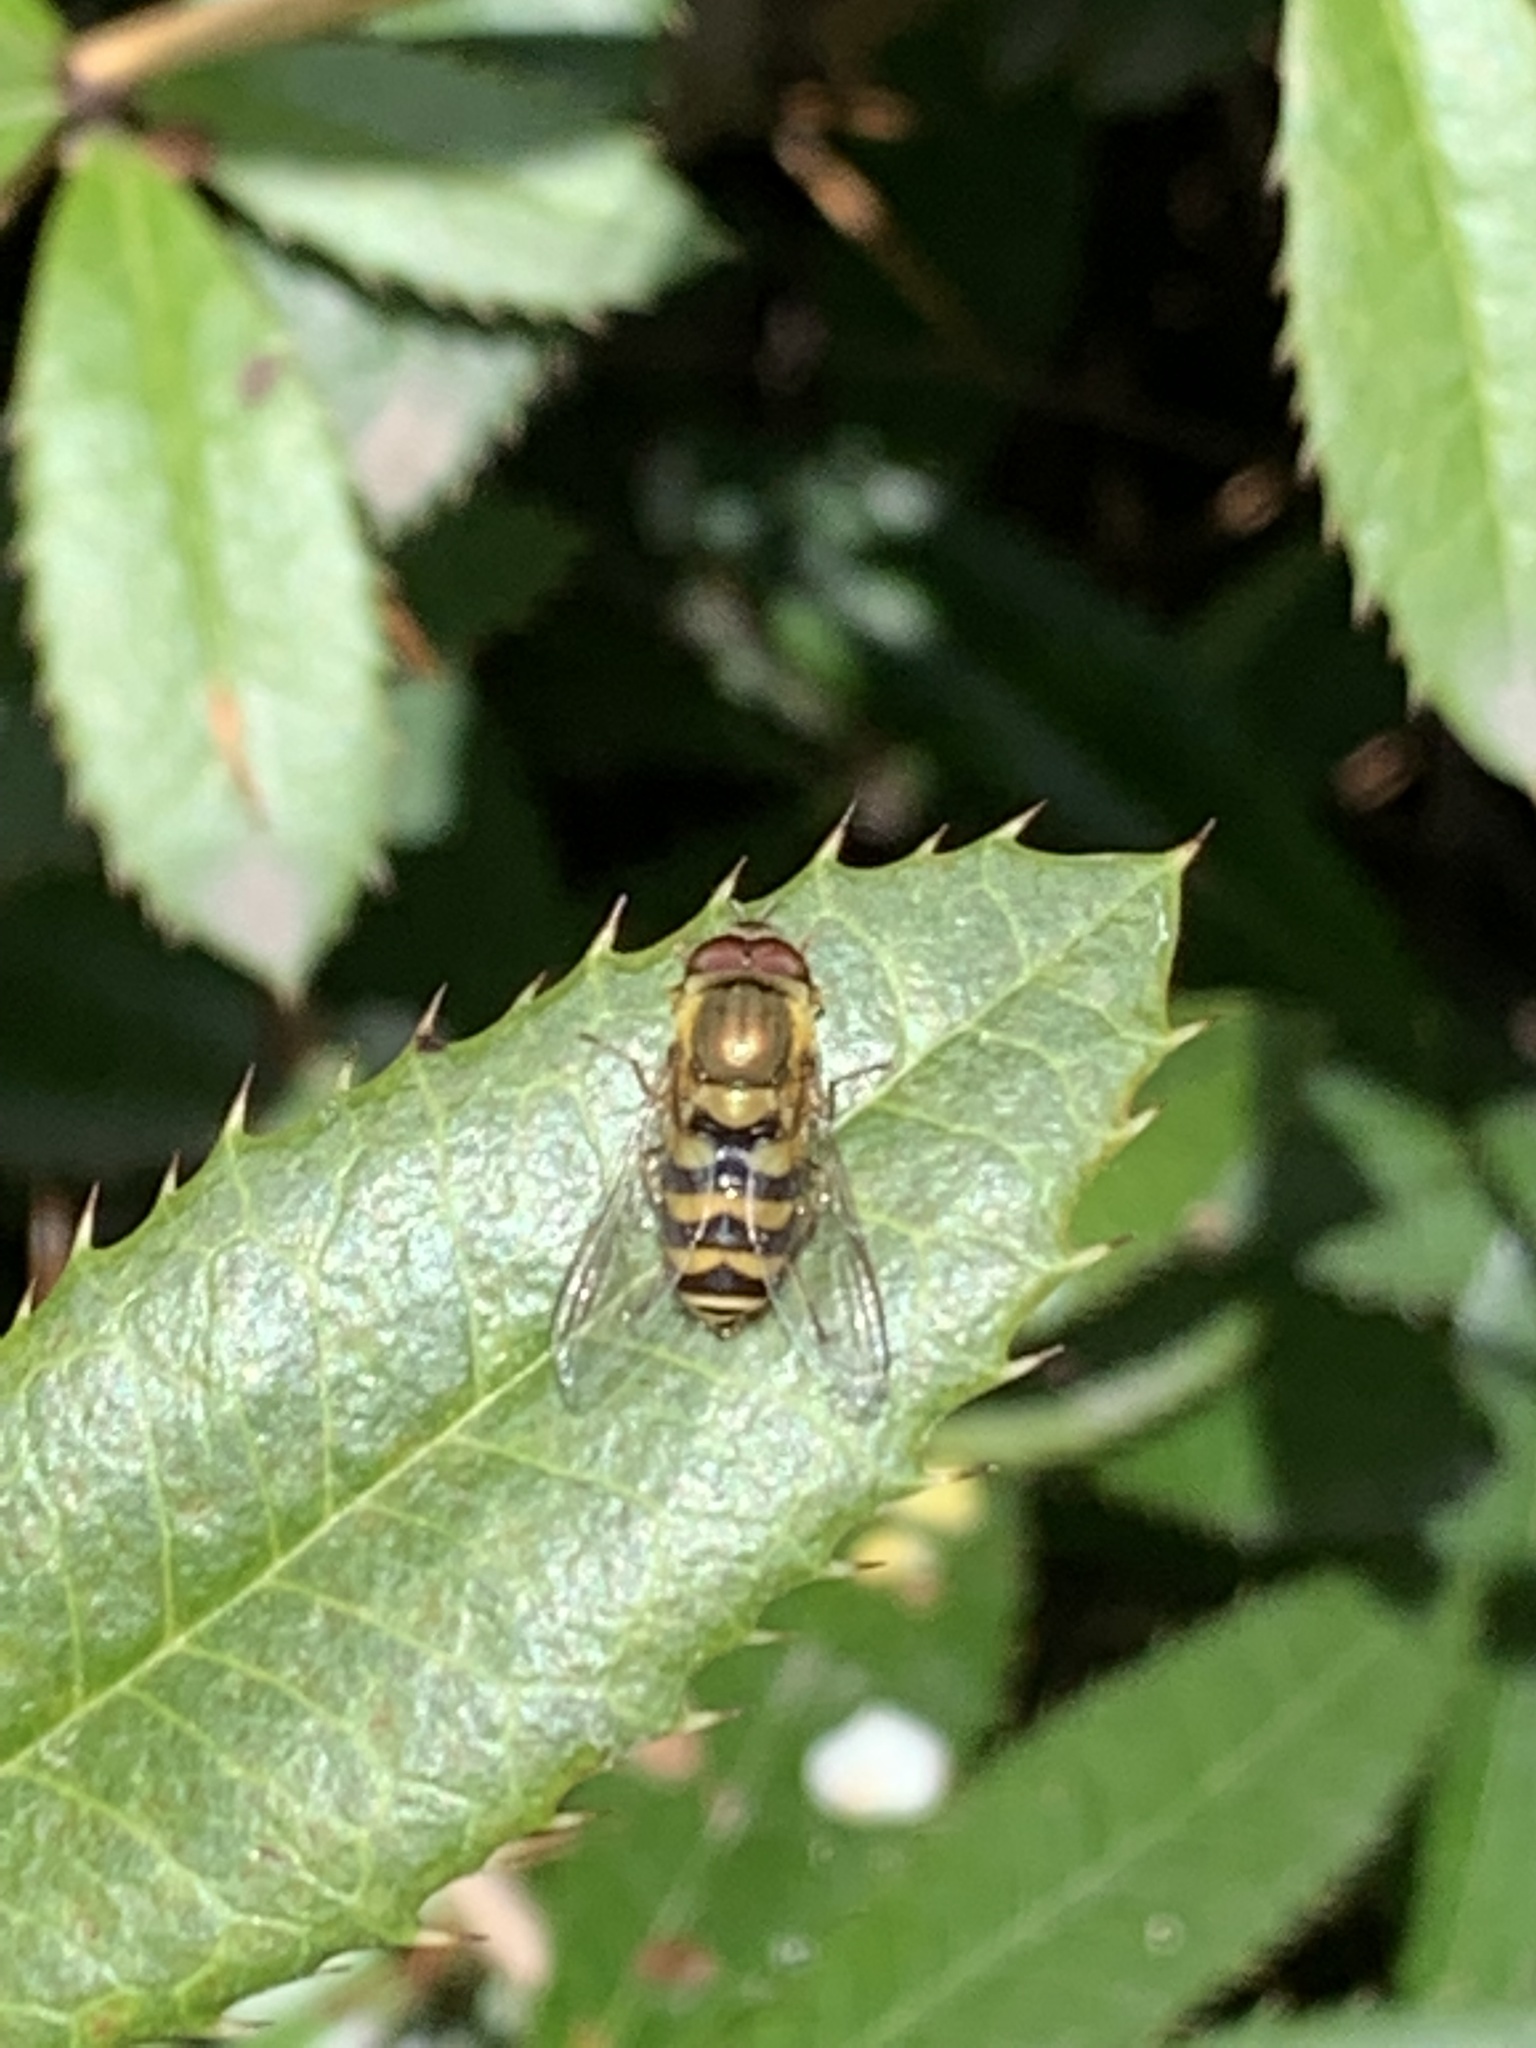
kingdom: Animalia
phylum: Arthropoda
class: Insecta
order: Diptera
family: Syrphidae
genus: Syrphus
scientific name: Syrphus
